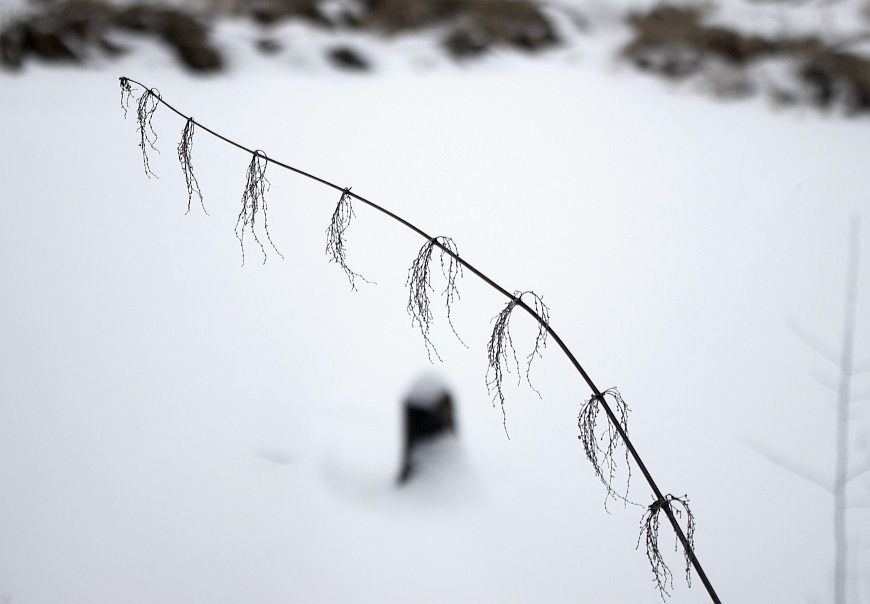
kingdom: Plantae
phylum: Tracheophyta
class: Magnoliopsida
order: Rosales
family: Urticaceae
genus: Urtica
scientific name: Urtica dioica
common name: Common nettle
